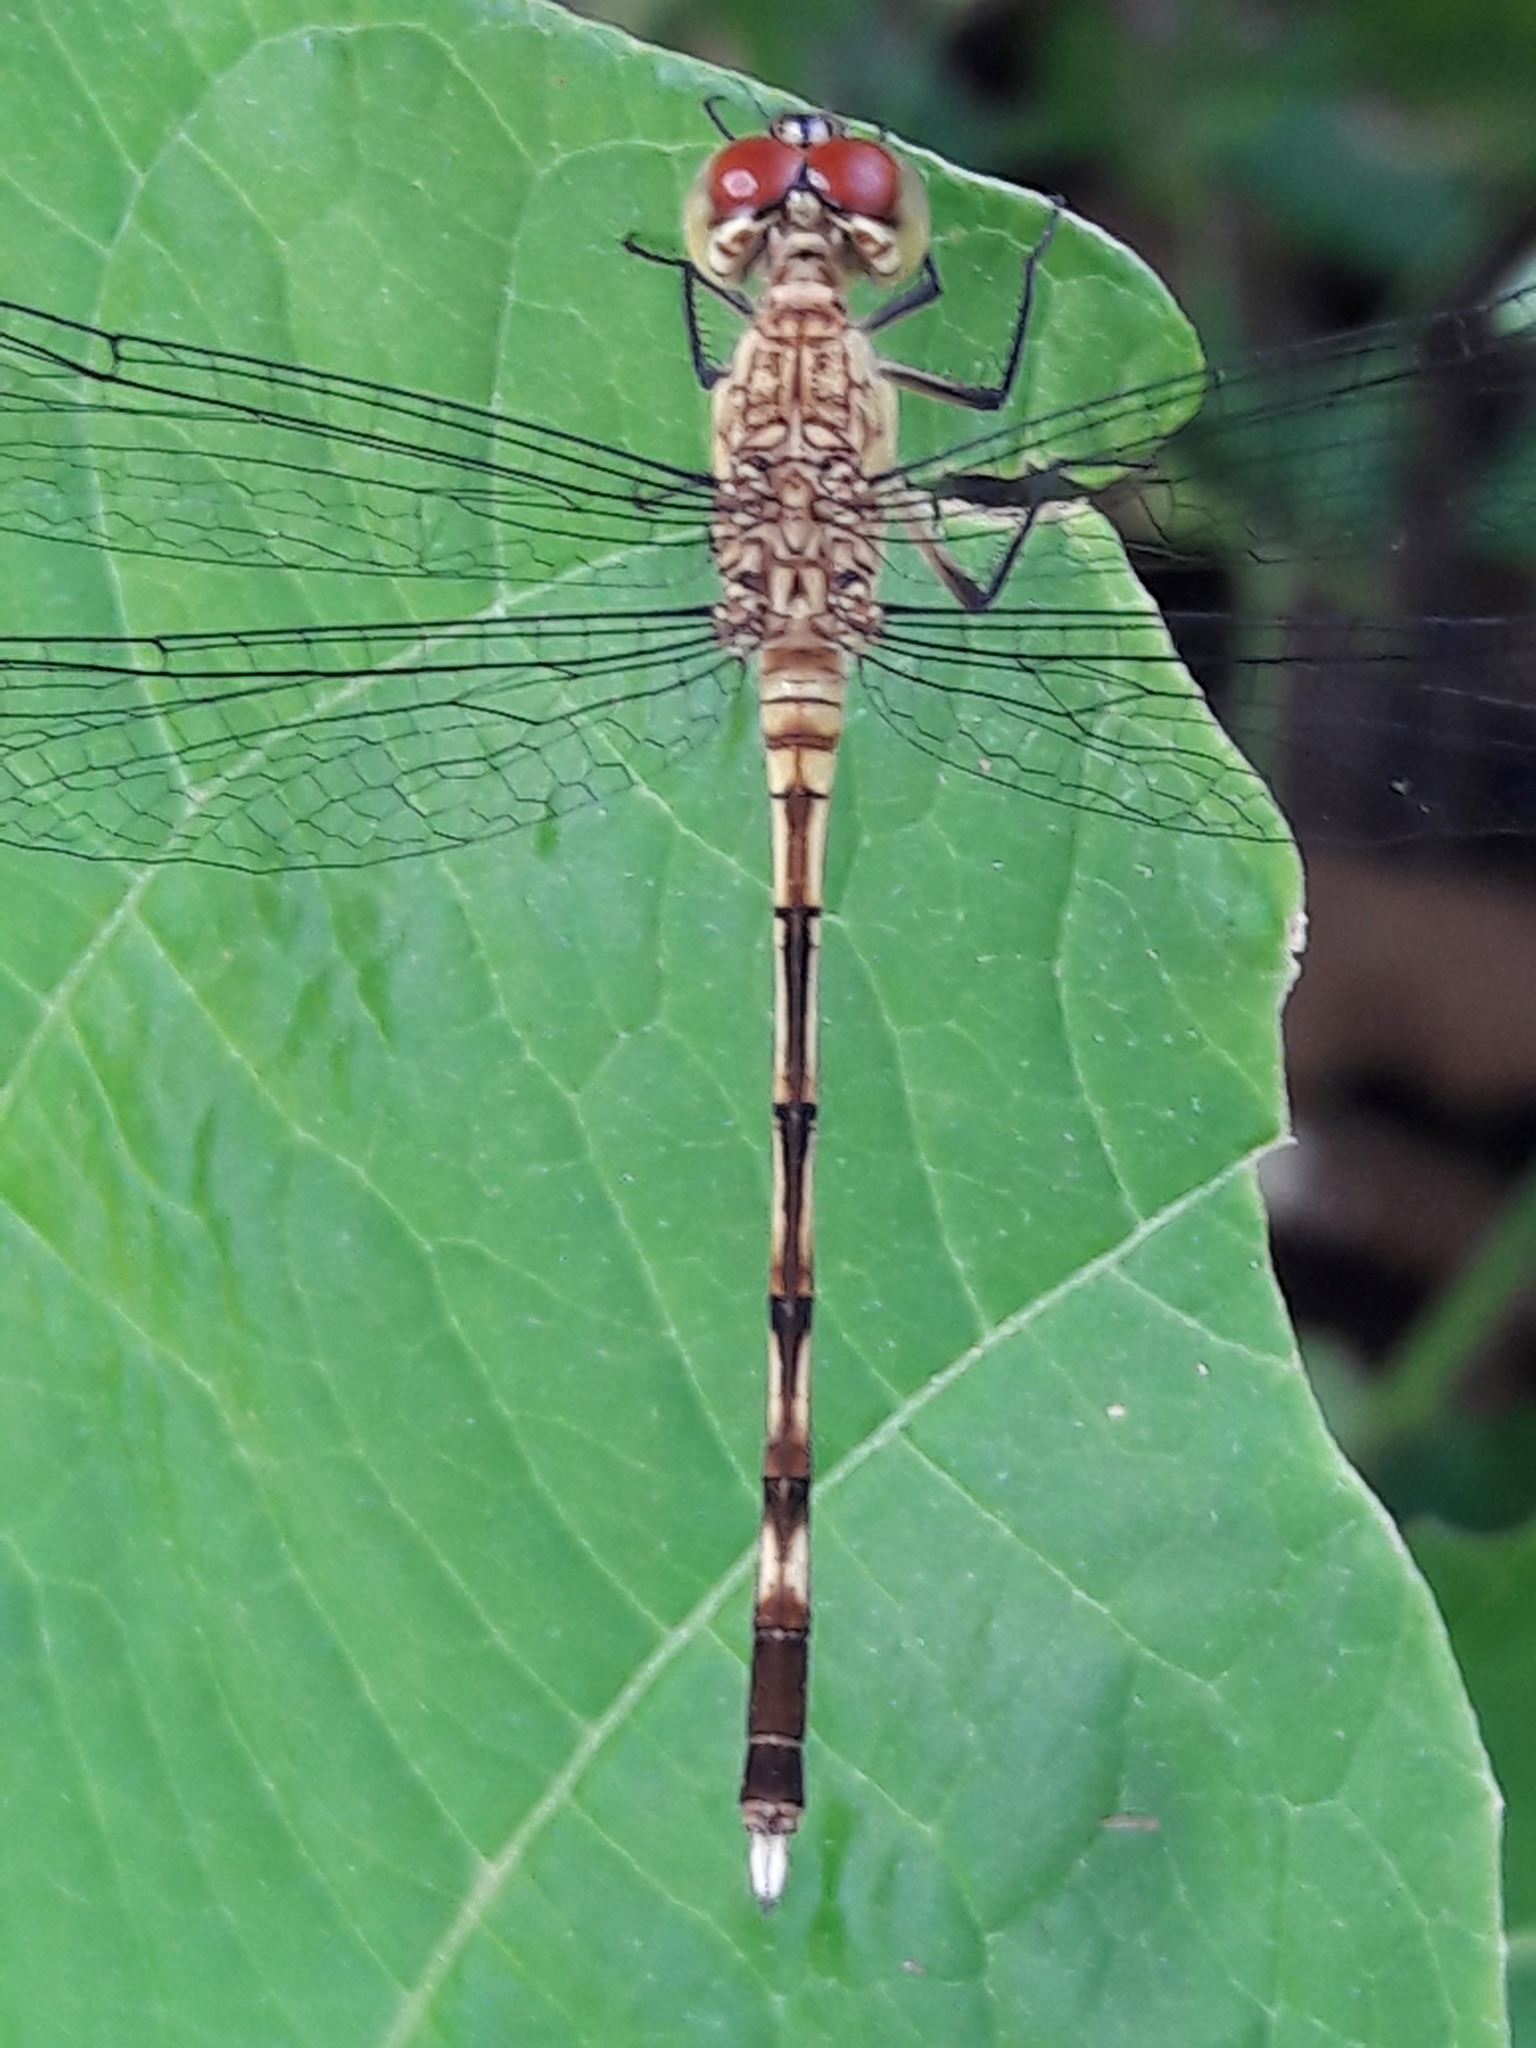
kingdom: Animalia
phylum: Arthropoda
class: Insecta
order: Odonata
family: Libellulidae
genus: Anatya
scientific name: Anatya guttata
